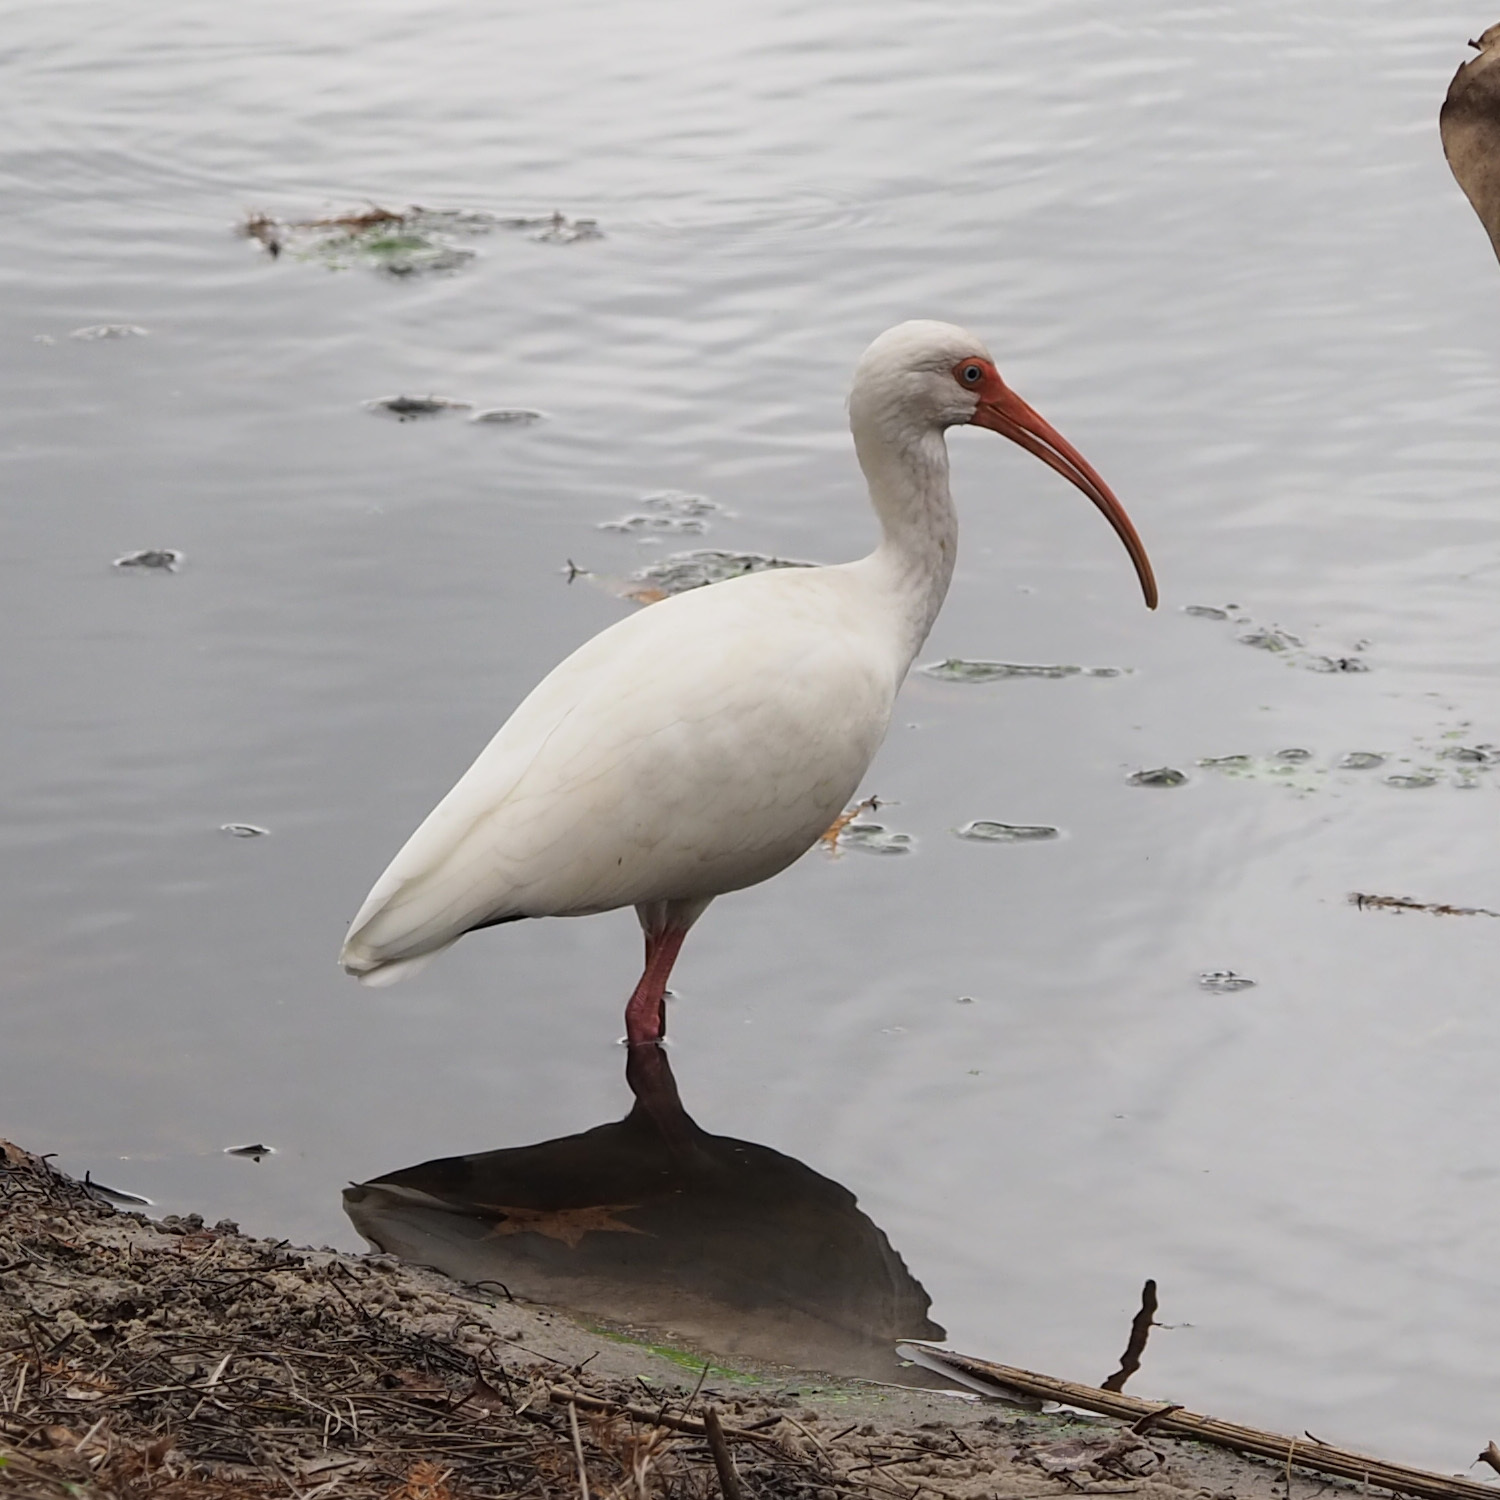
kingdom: Animalia
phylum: Chordata
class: Aves
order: Pelecaniformes
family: Threskiornithidae
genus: Eudocimus
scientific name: Eudocimus albus
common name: White ibis
